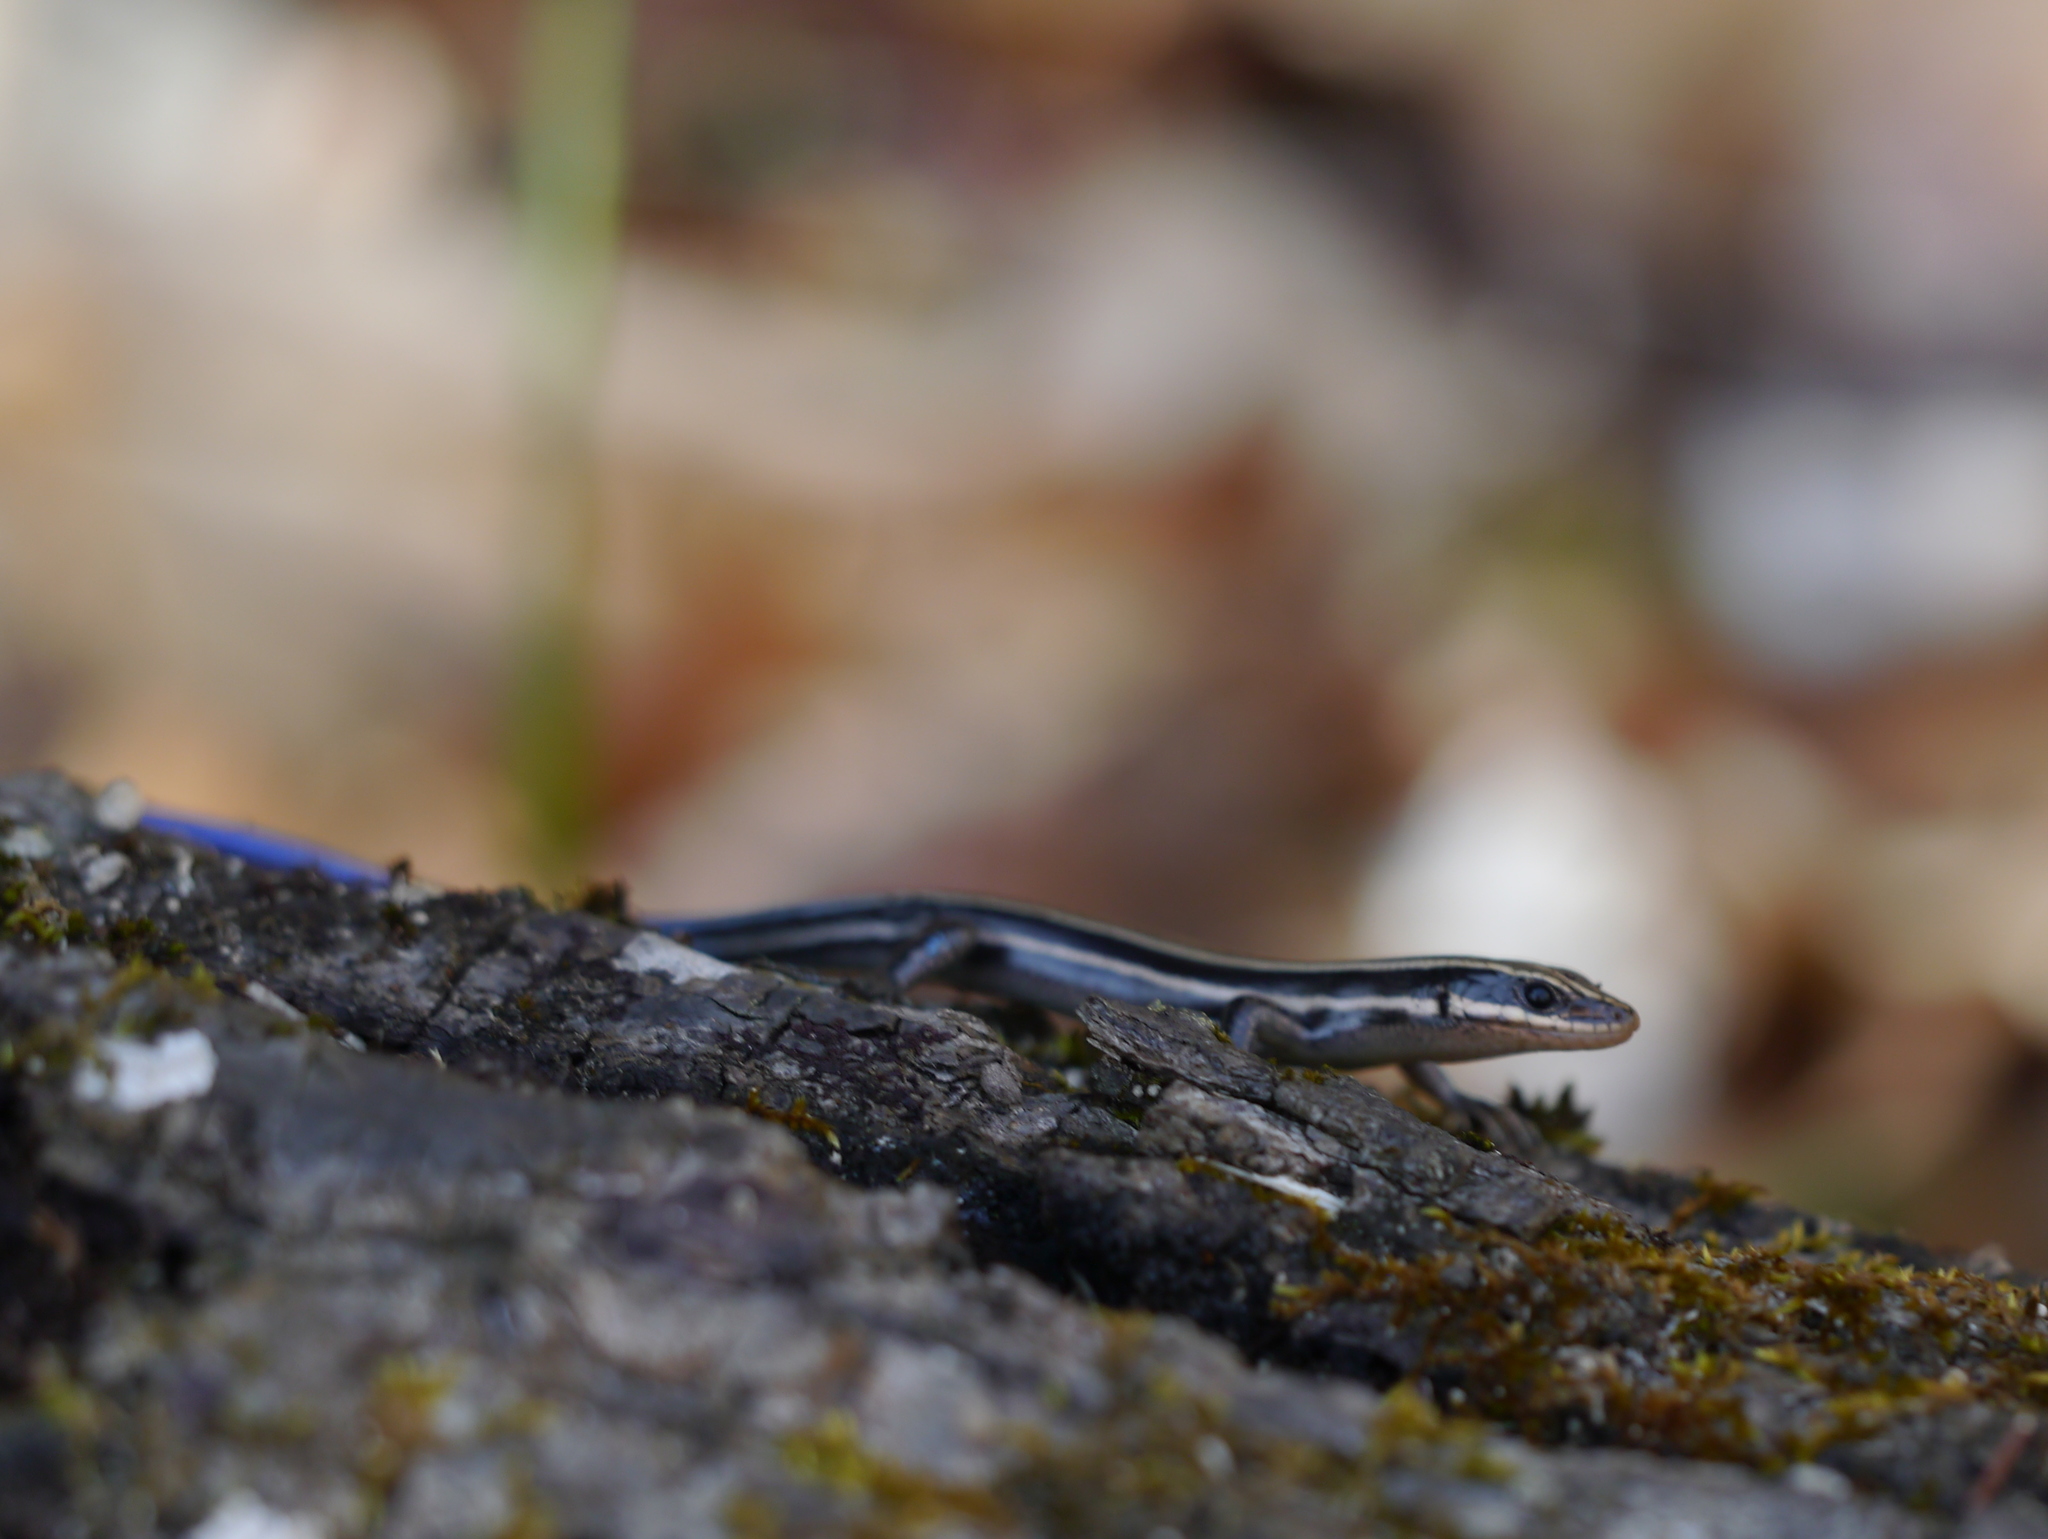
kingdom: Animalia
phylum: Chordata
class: Squamata
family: Scincidae
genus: Plestiodon
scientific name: Plestiodon fasciatus
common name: Five-lined skink
